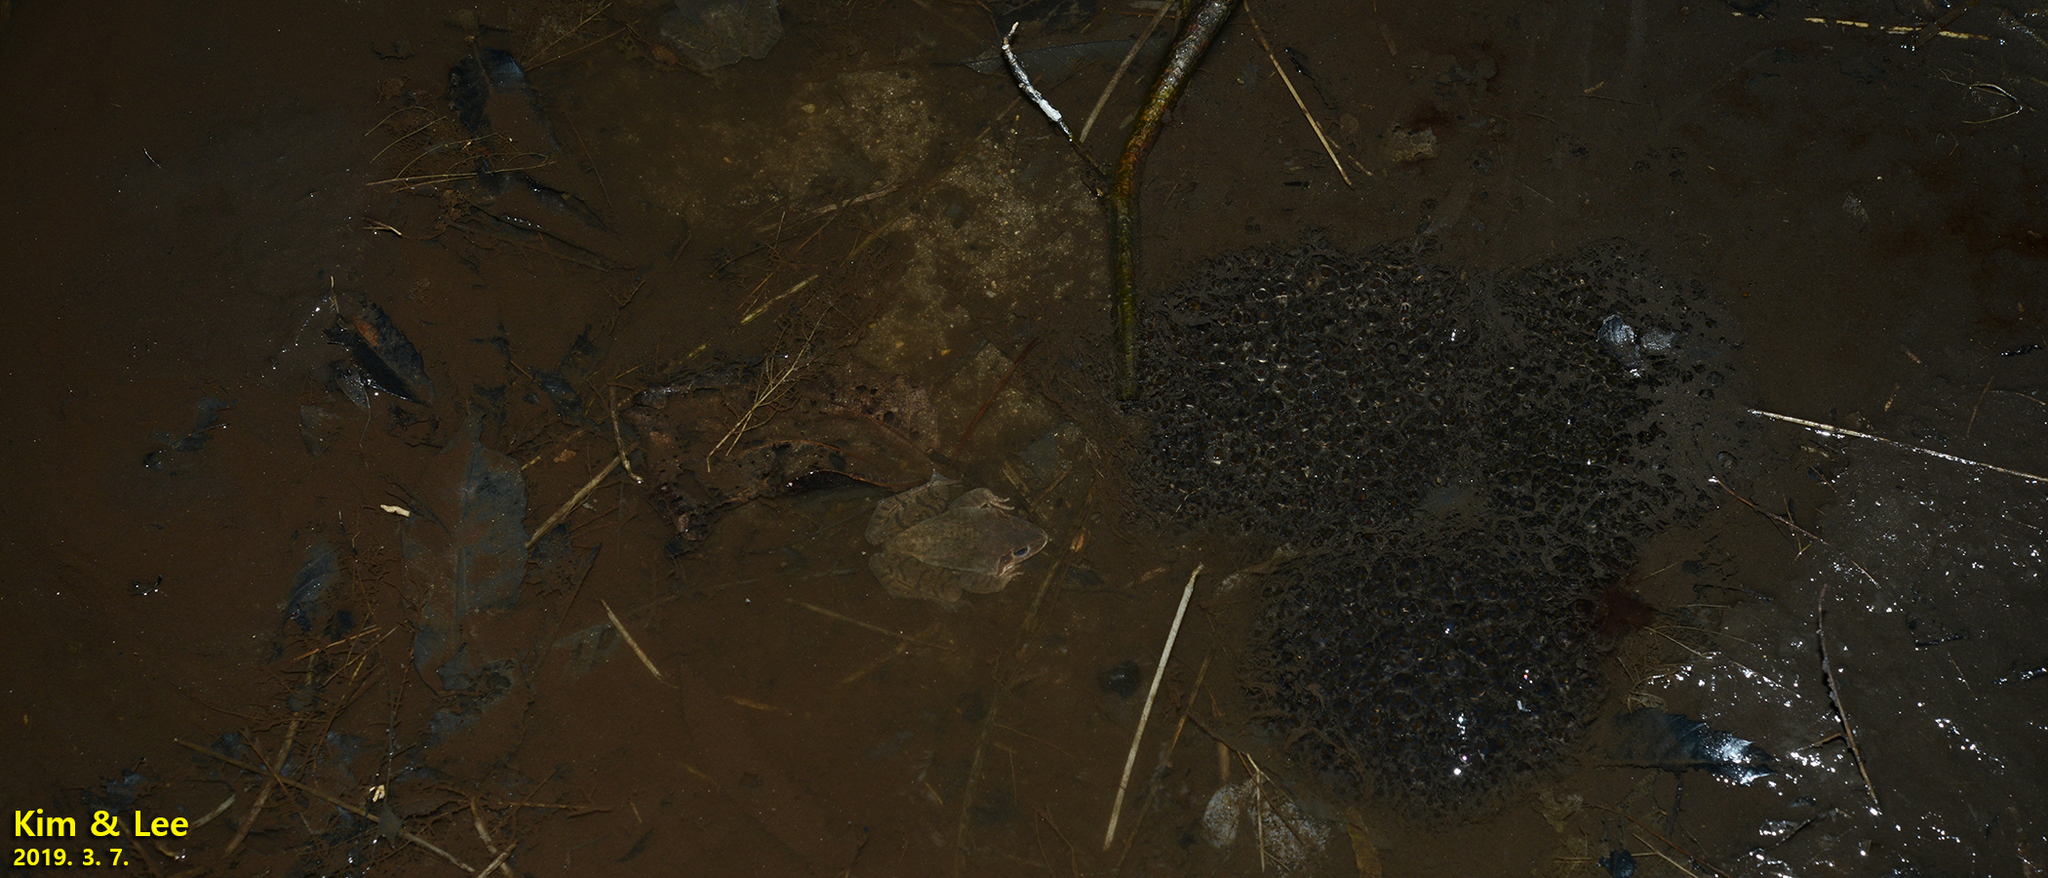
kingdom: Animalia
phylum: Chordata
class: Amphibia
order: Anura
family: Ranidae
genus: Rana
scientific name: Rana uenoi
